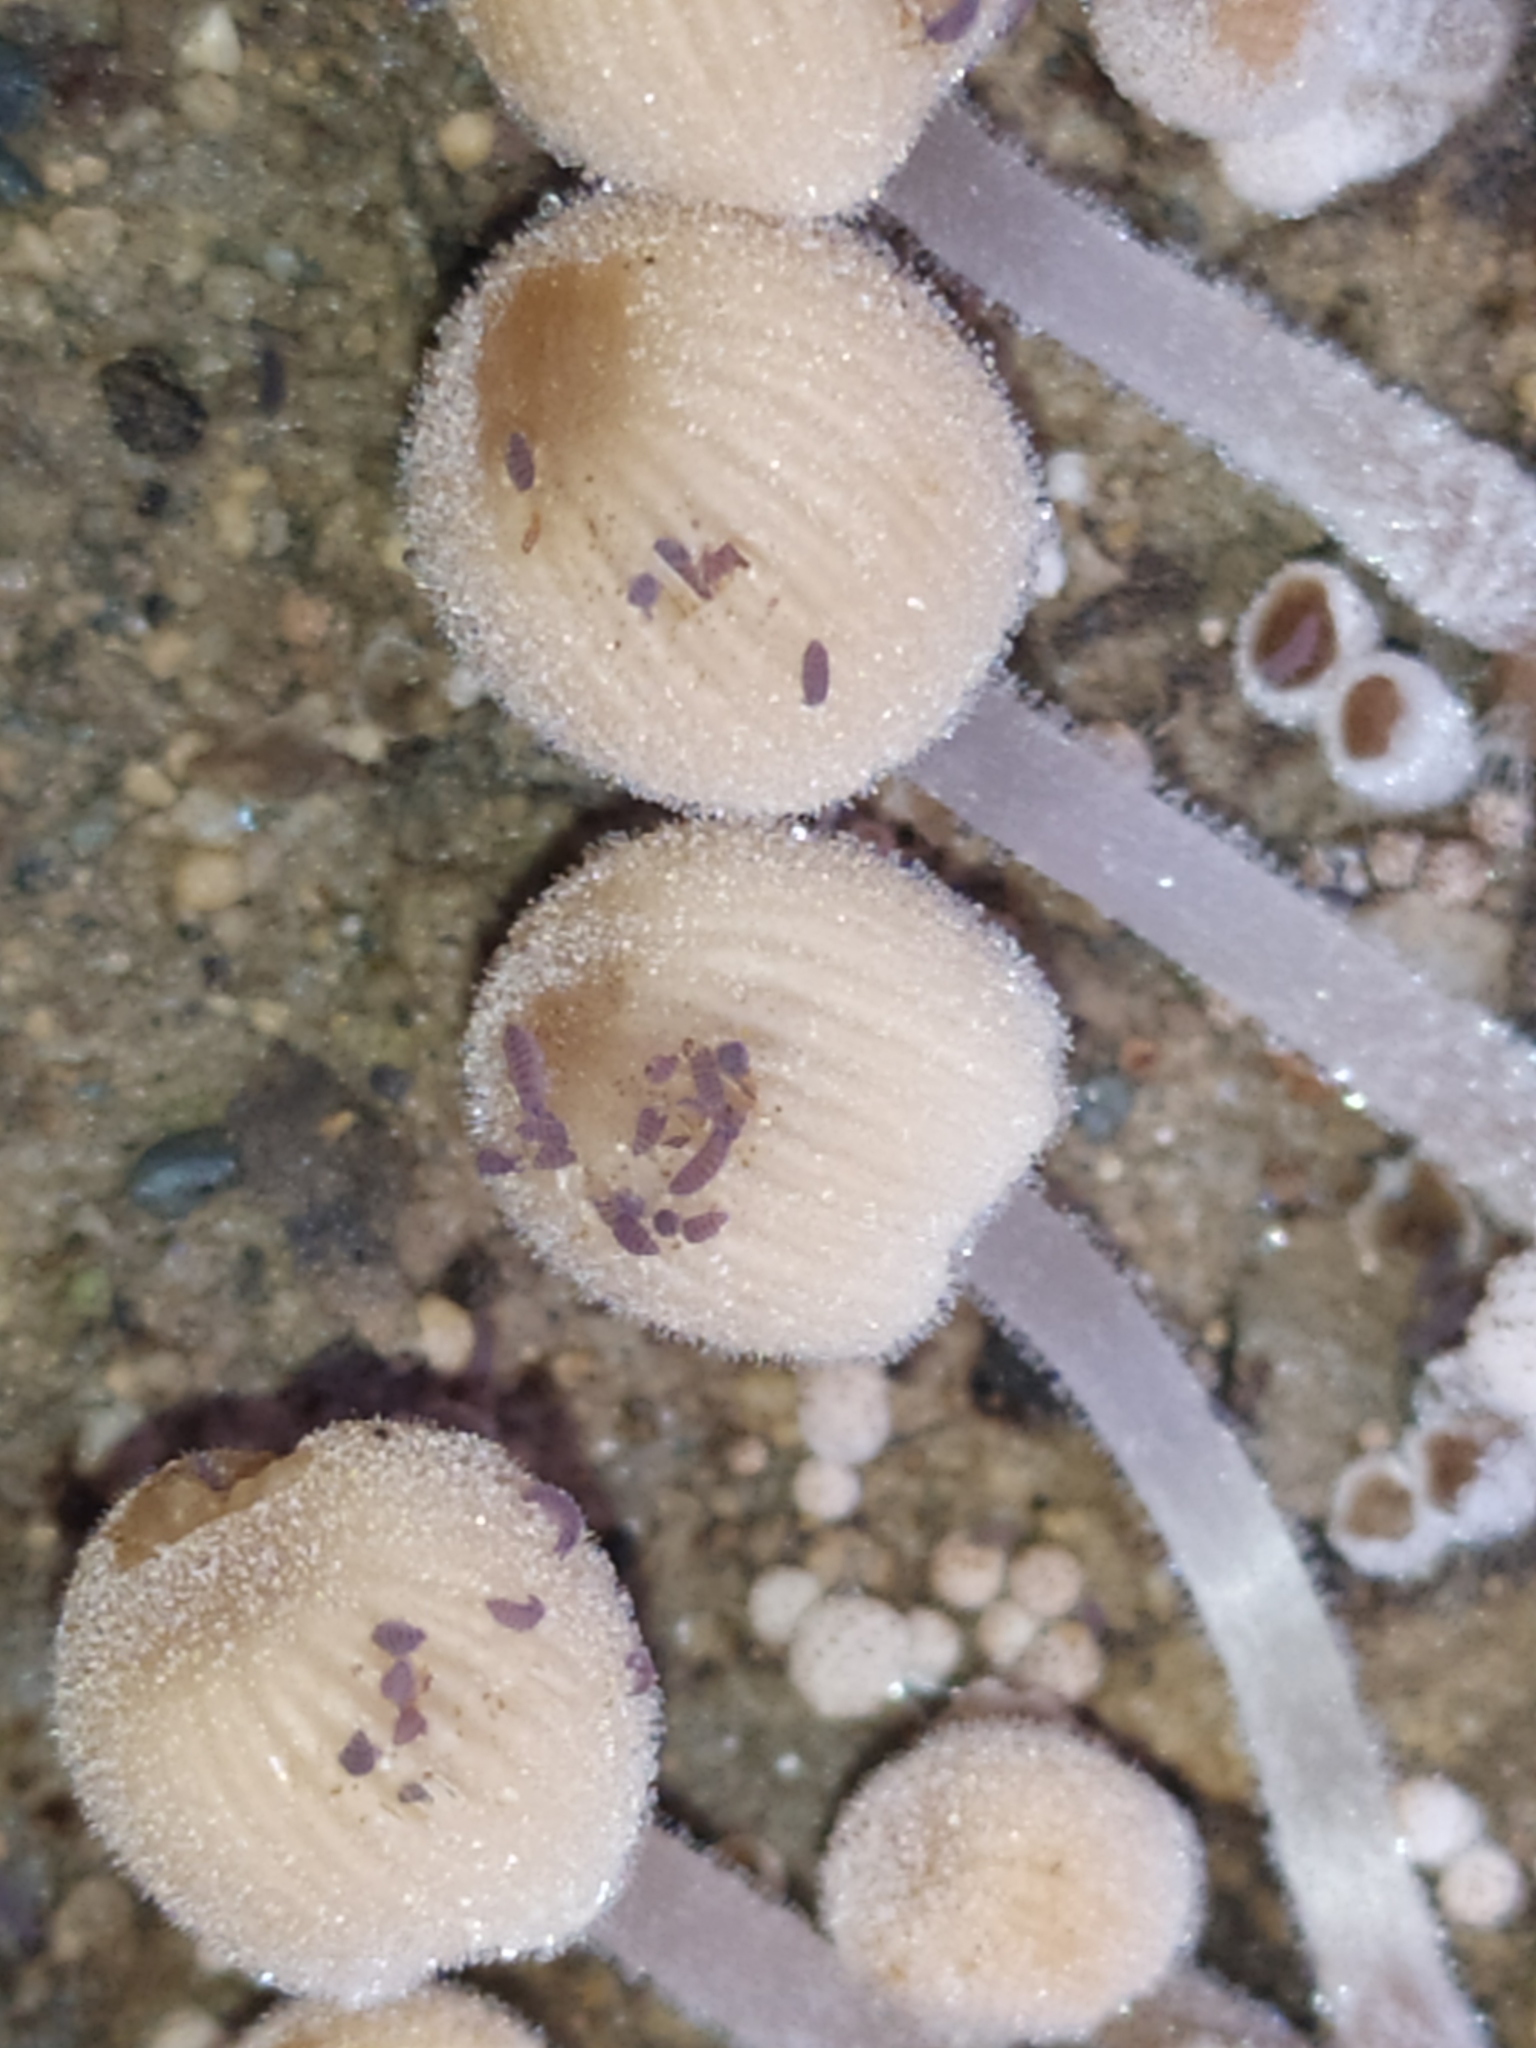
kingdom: Fungi
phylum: Basidiomycota
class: Agaricomycetes
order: Agaricales
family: Psathyrellaceae
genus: Coprinellus
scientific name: Coprinellus
